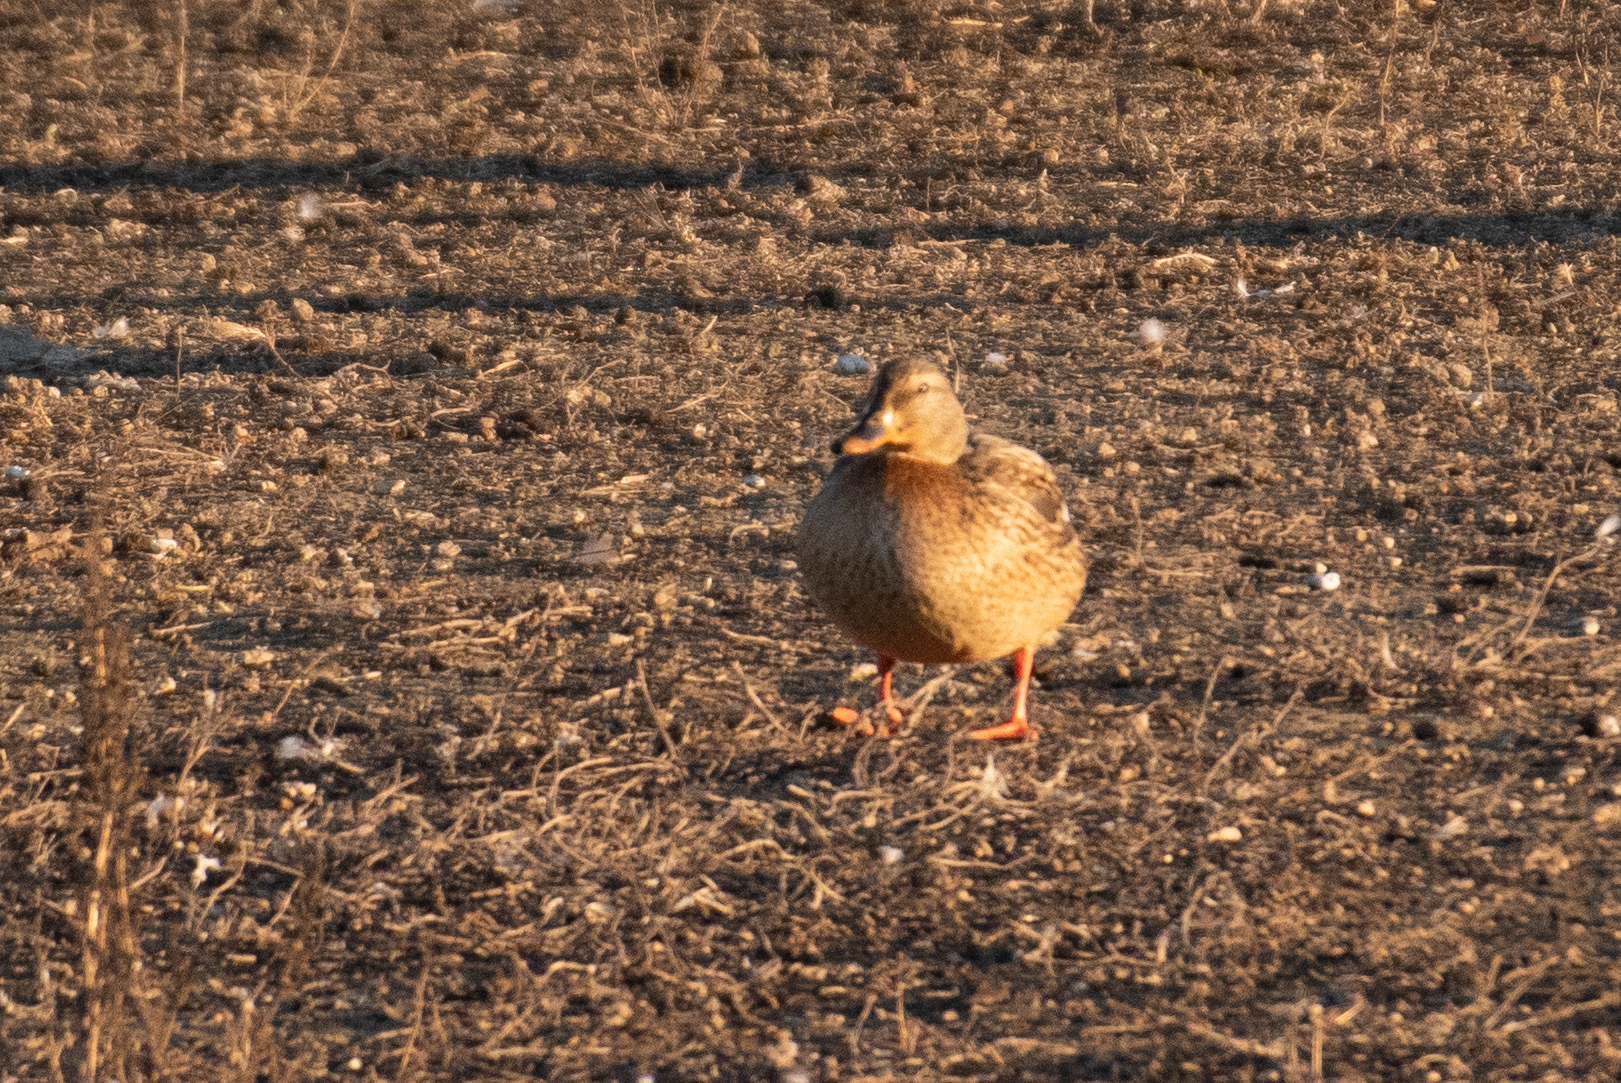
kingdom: Animalia
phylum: Chordata
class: Aves
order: Anseriformes
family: Anatidae
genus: Anas
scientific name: Anas platyrhynchos
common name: Mallard
